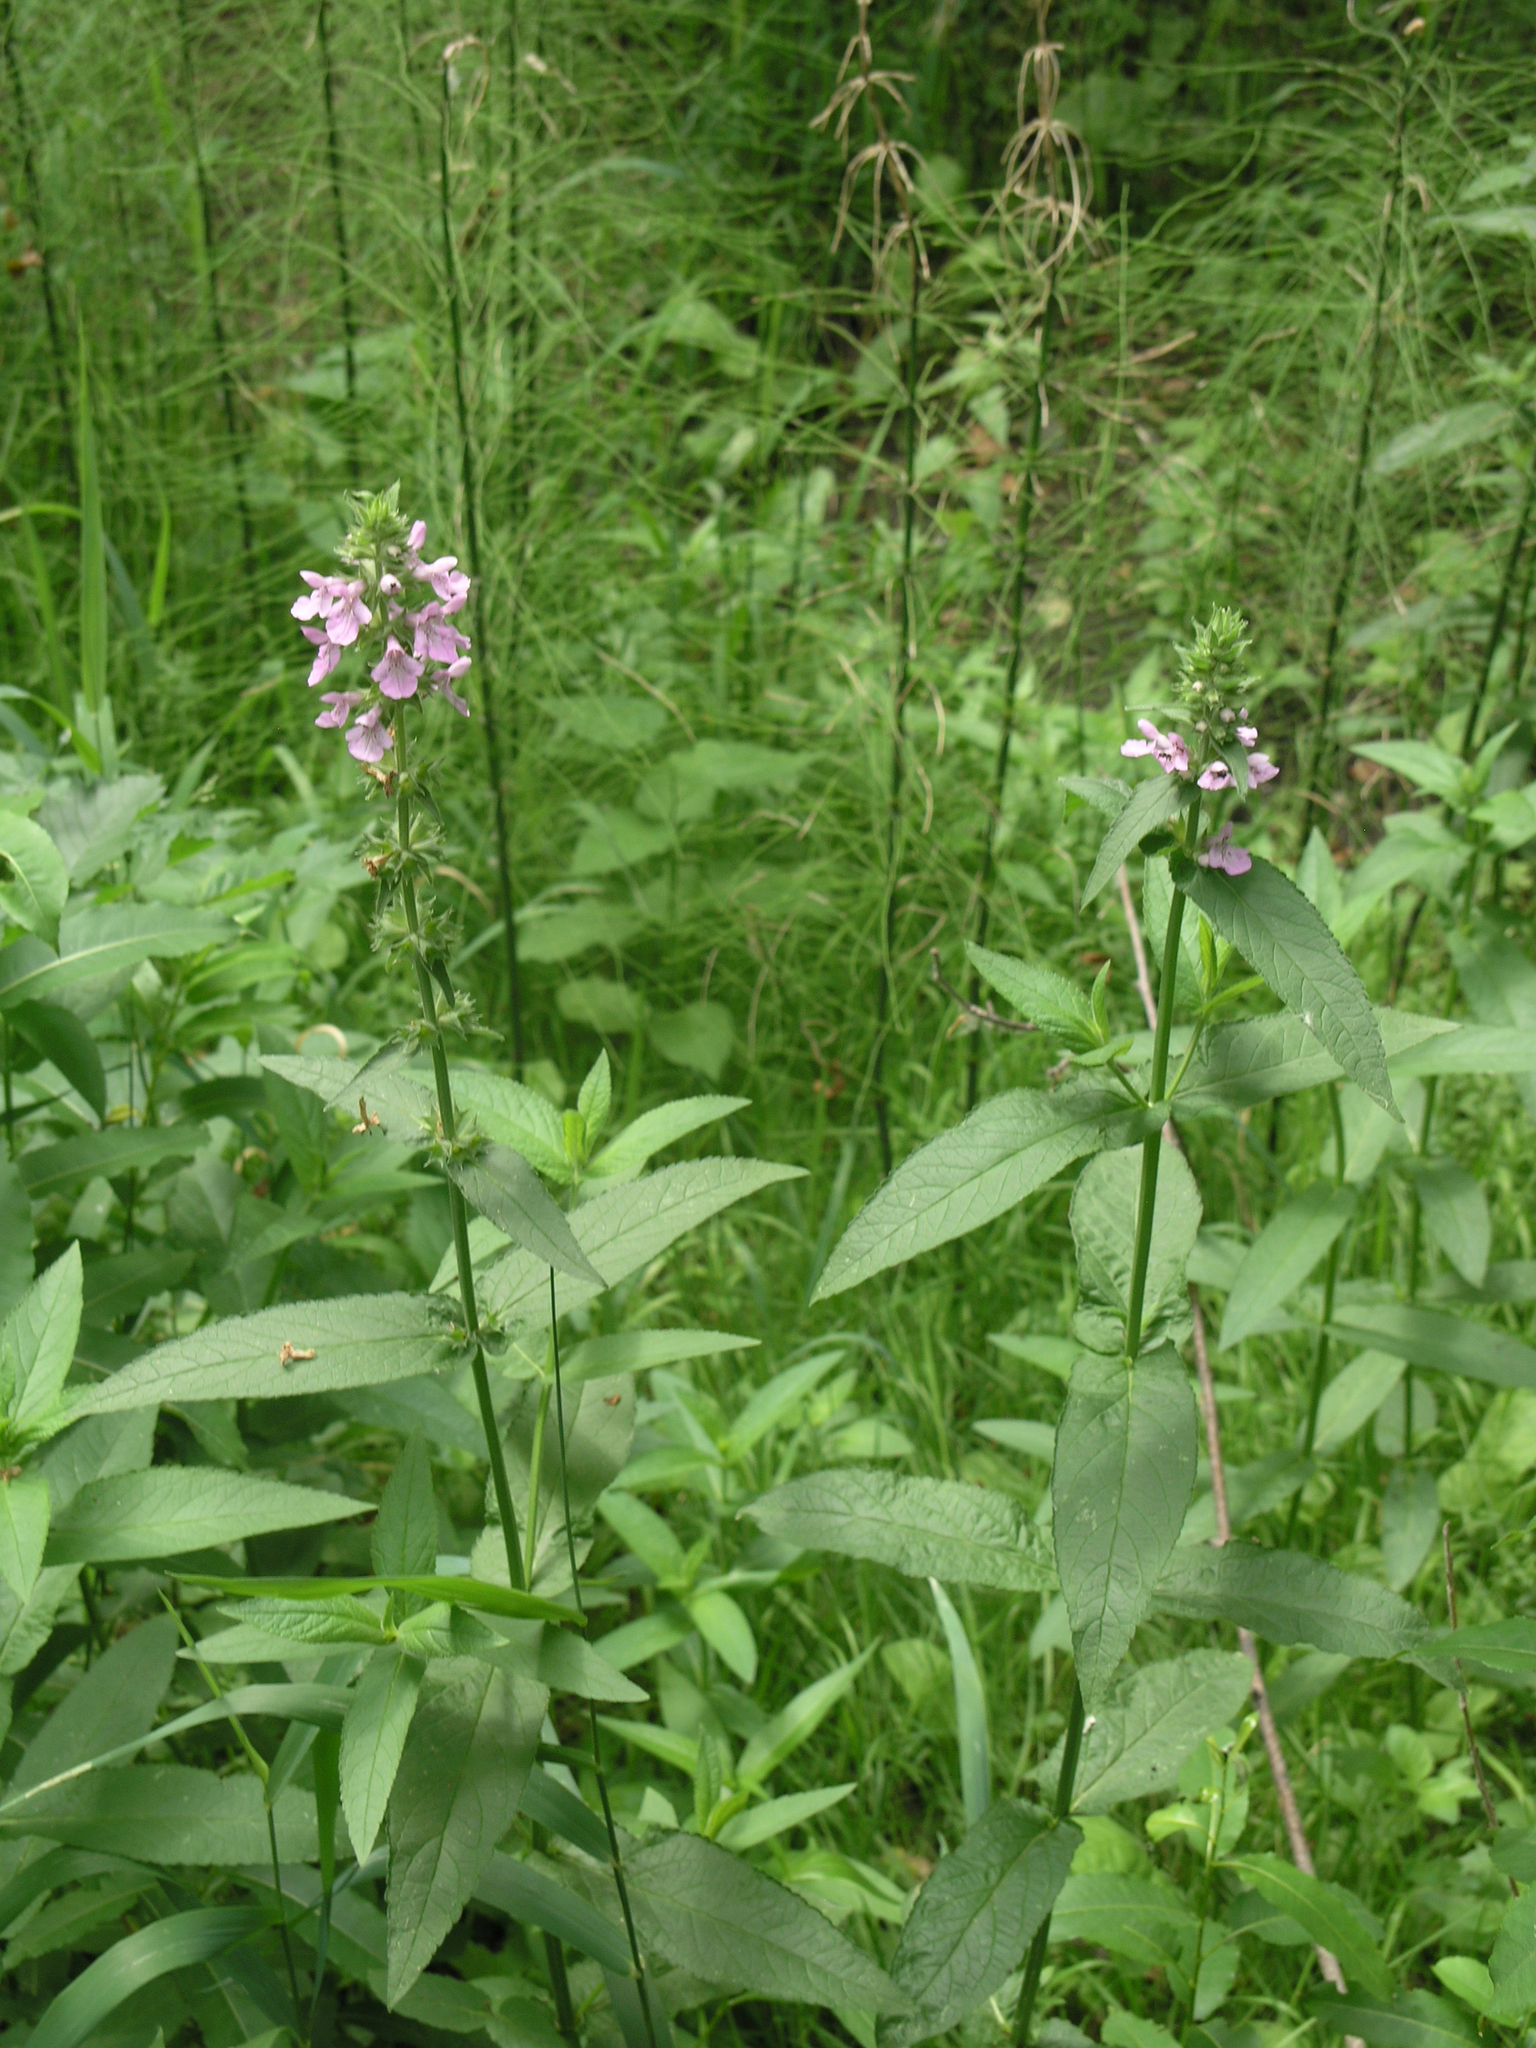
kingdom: Plantae
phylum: Tracheophyta
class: Magnoliopsida
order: Lamiales
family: Lamiaceae
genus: Stachys
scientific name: Stachys palustris
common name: Marsh woundwort
